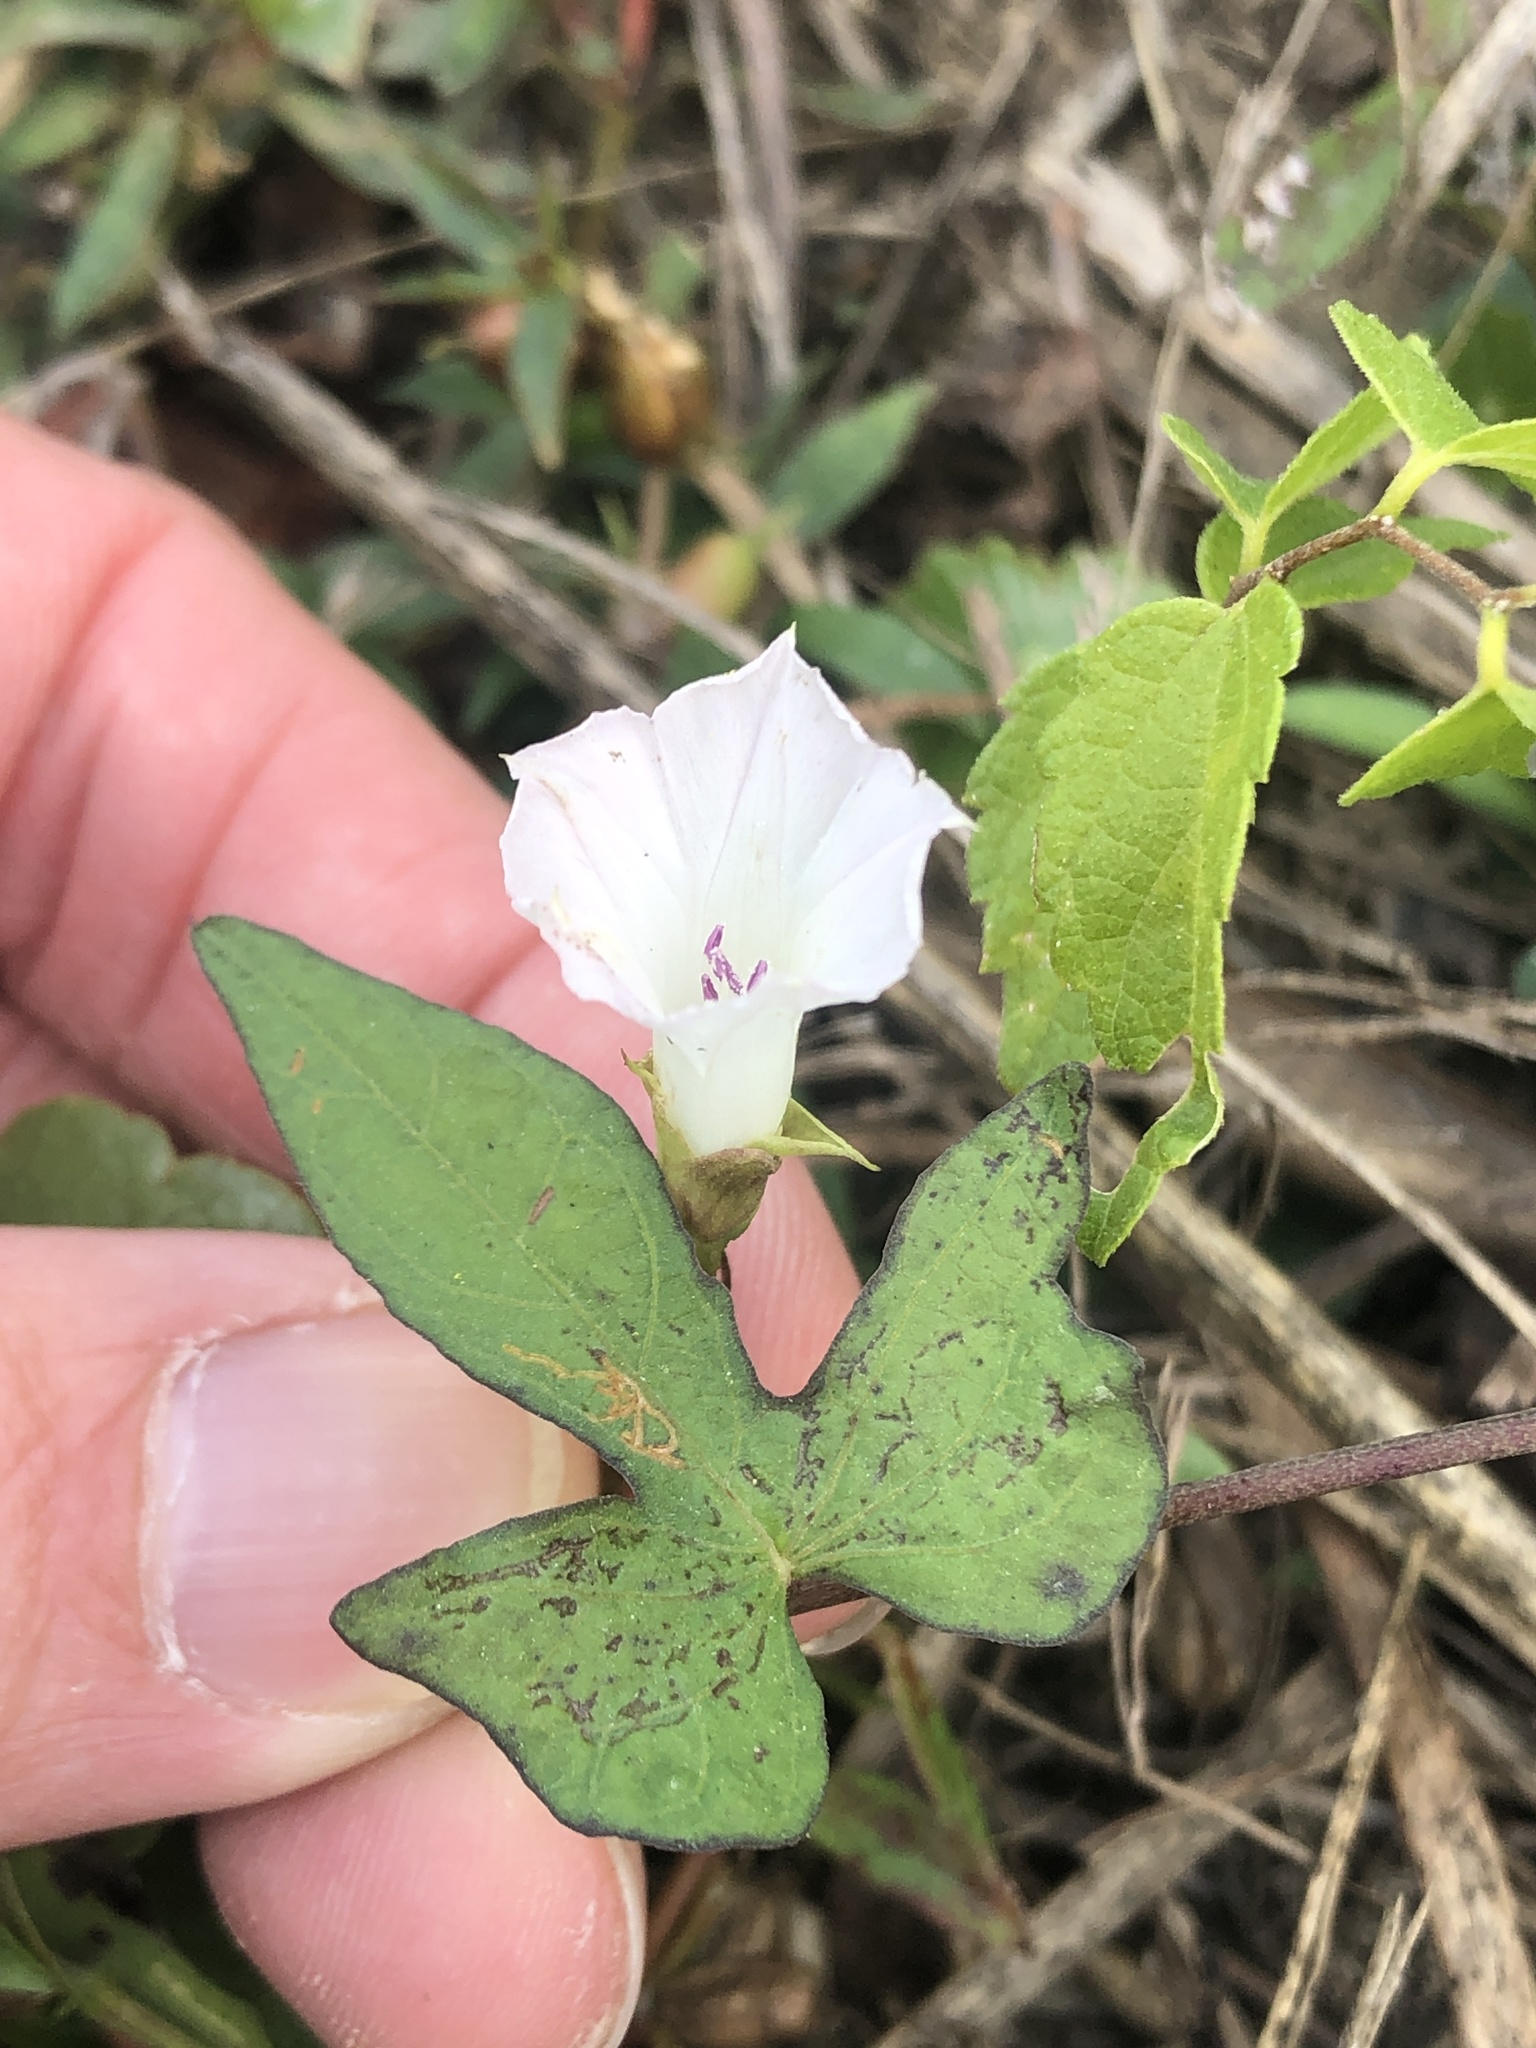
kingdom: Plantae
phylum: Tracheophyta
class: Magnoliopsida
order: Solanales
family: Convolvulaceae
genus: Ipomoea
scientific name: Ipomoea lacunosa
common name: White morning-glory
